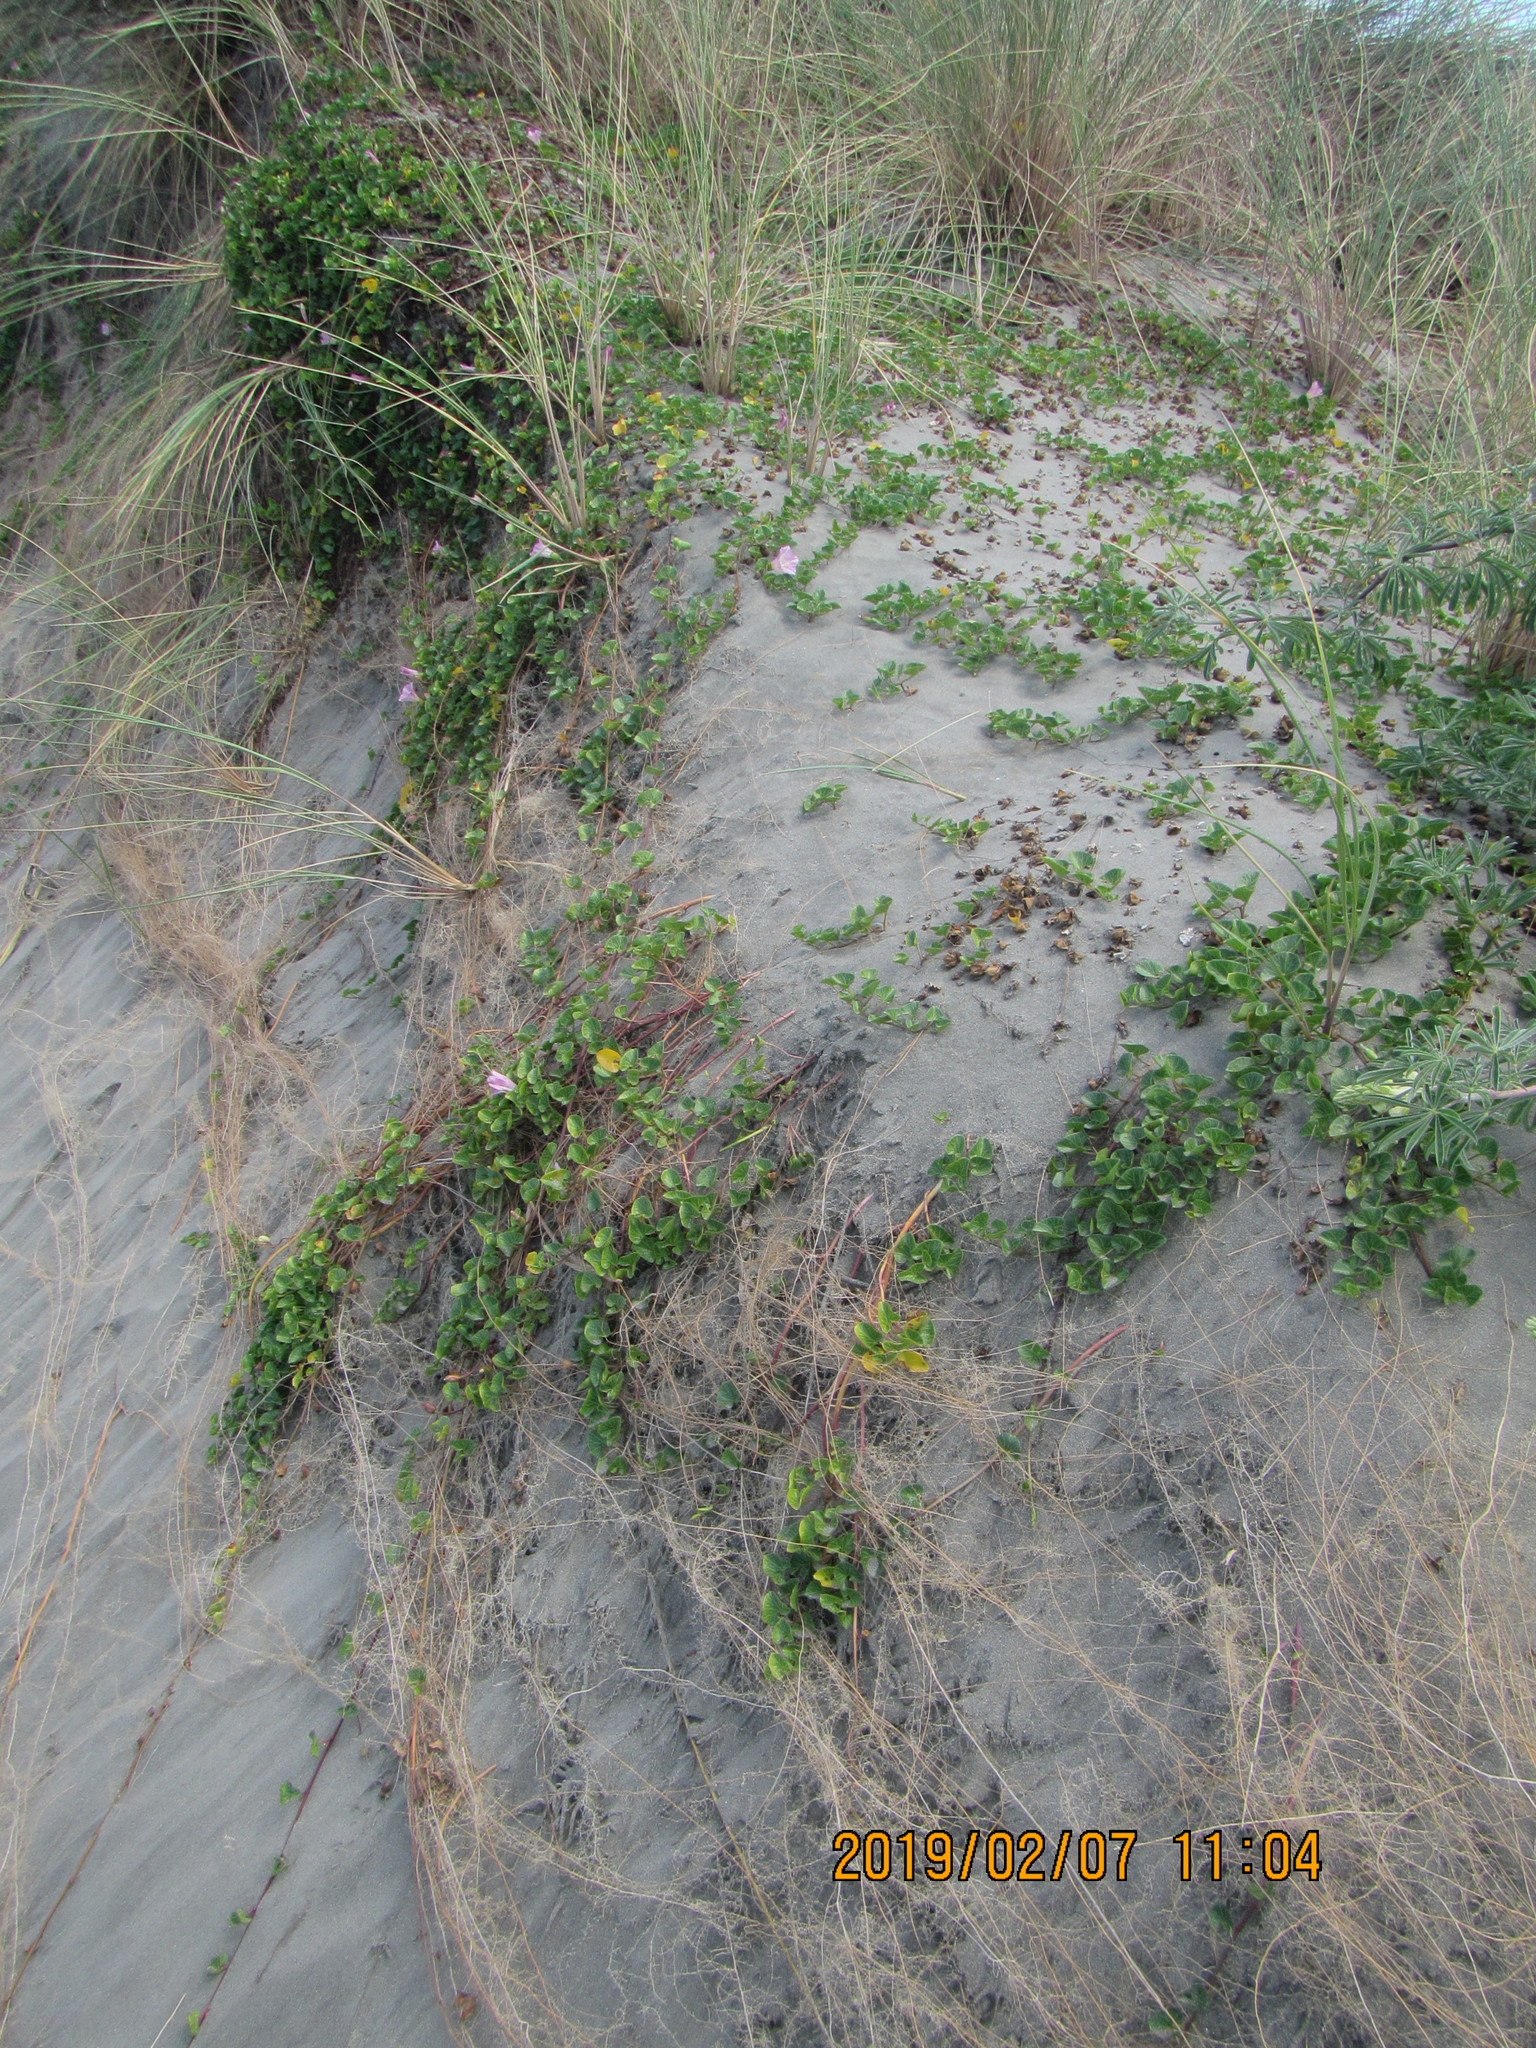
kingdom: Plantae
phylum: Tracheophyta
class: Magnoliopsida
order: Solanales
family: Convolvulaceae
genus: Calystegia
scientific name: Calystegia soldanella
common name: Sea bindweed
